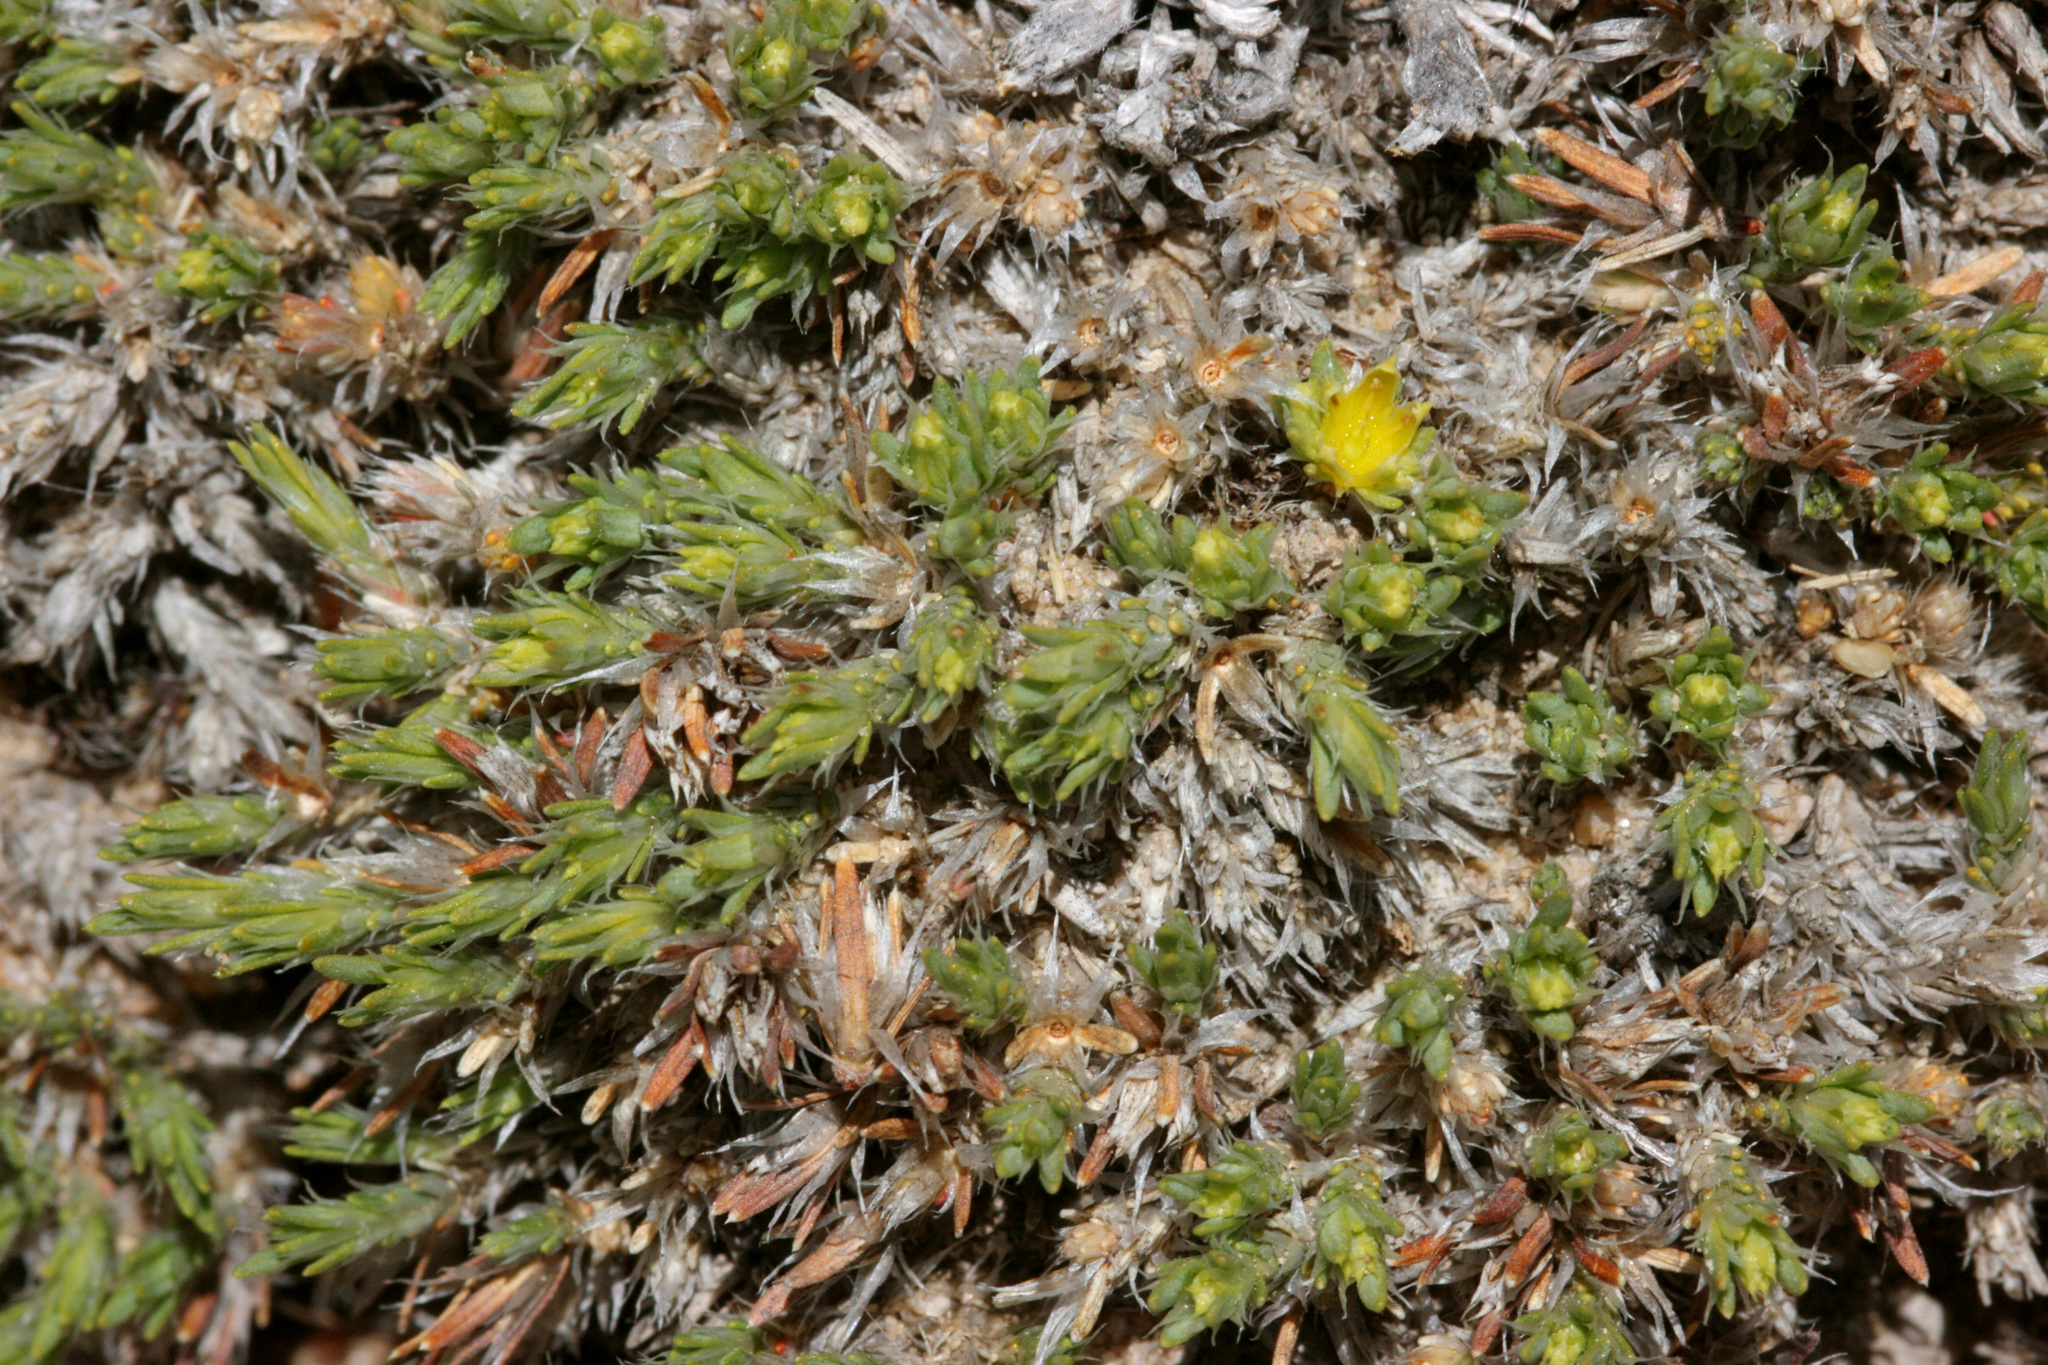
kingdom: Plantae
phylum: Tracheophyta
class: Magnoliopsida
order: Caryophyllales
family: Caryophyllaceae
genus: Paronychia
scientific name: Paronychia sessiliflora
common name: Creeping nailwort
